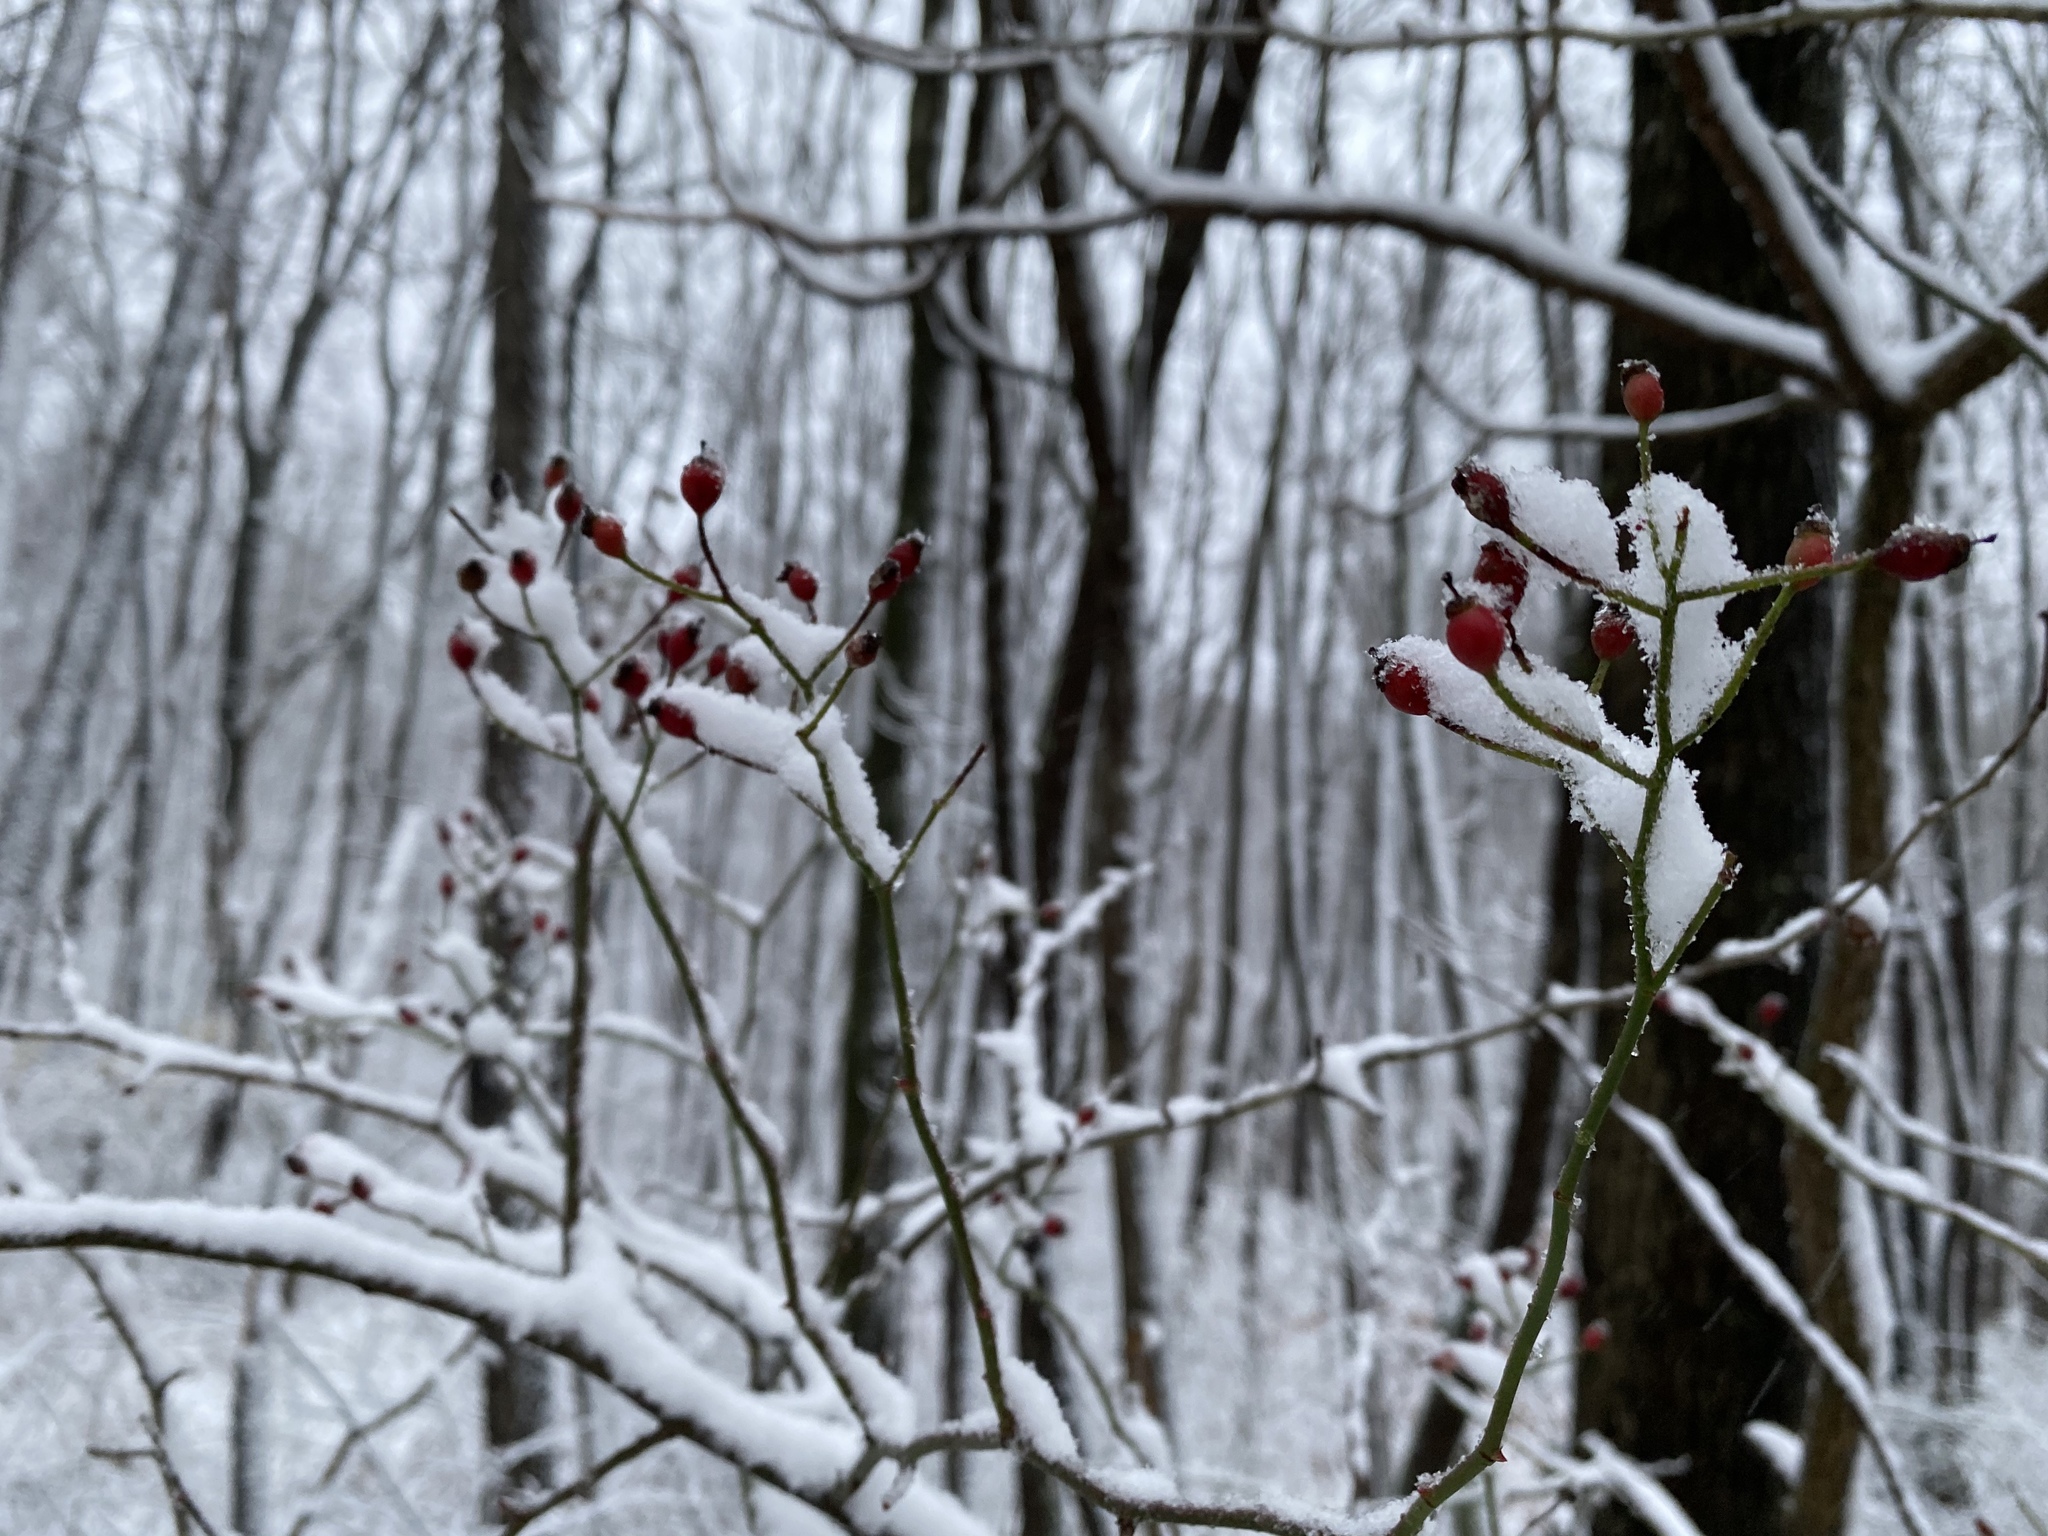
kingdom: Plantae
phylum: Tracheophyta
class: Magnoliopsida
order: Rosales
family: Rosaceae
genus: Rosa
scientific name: Rosa multiflora
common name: Multiflora rose
